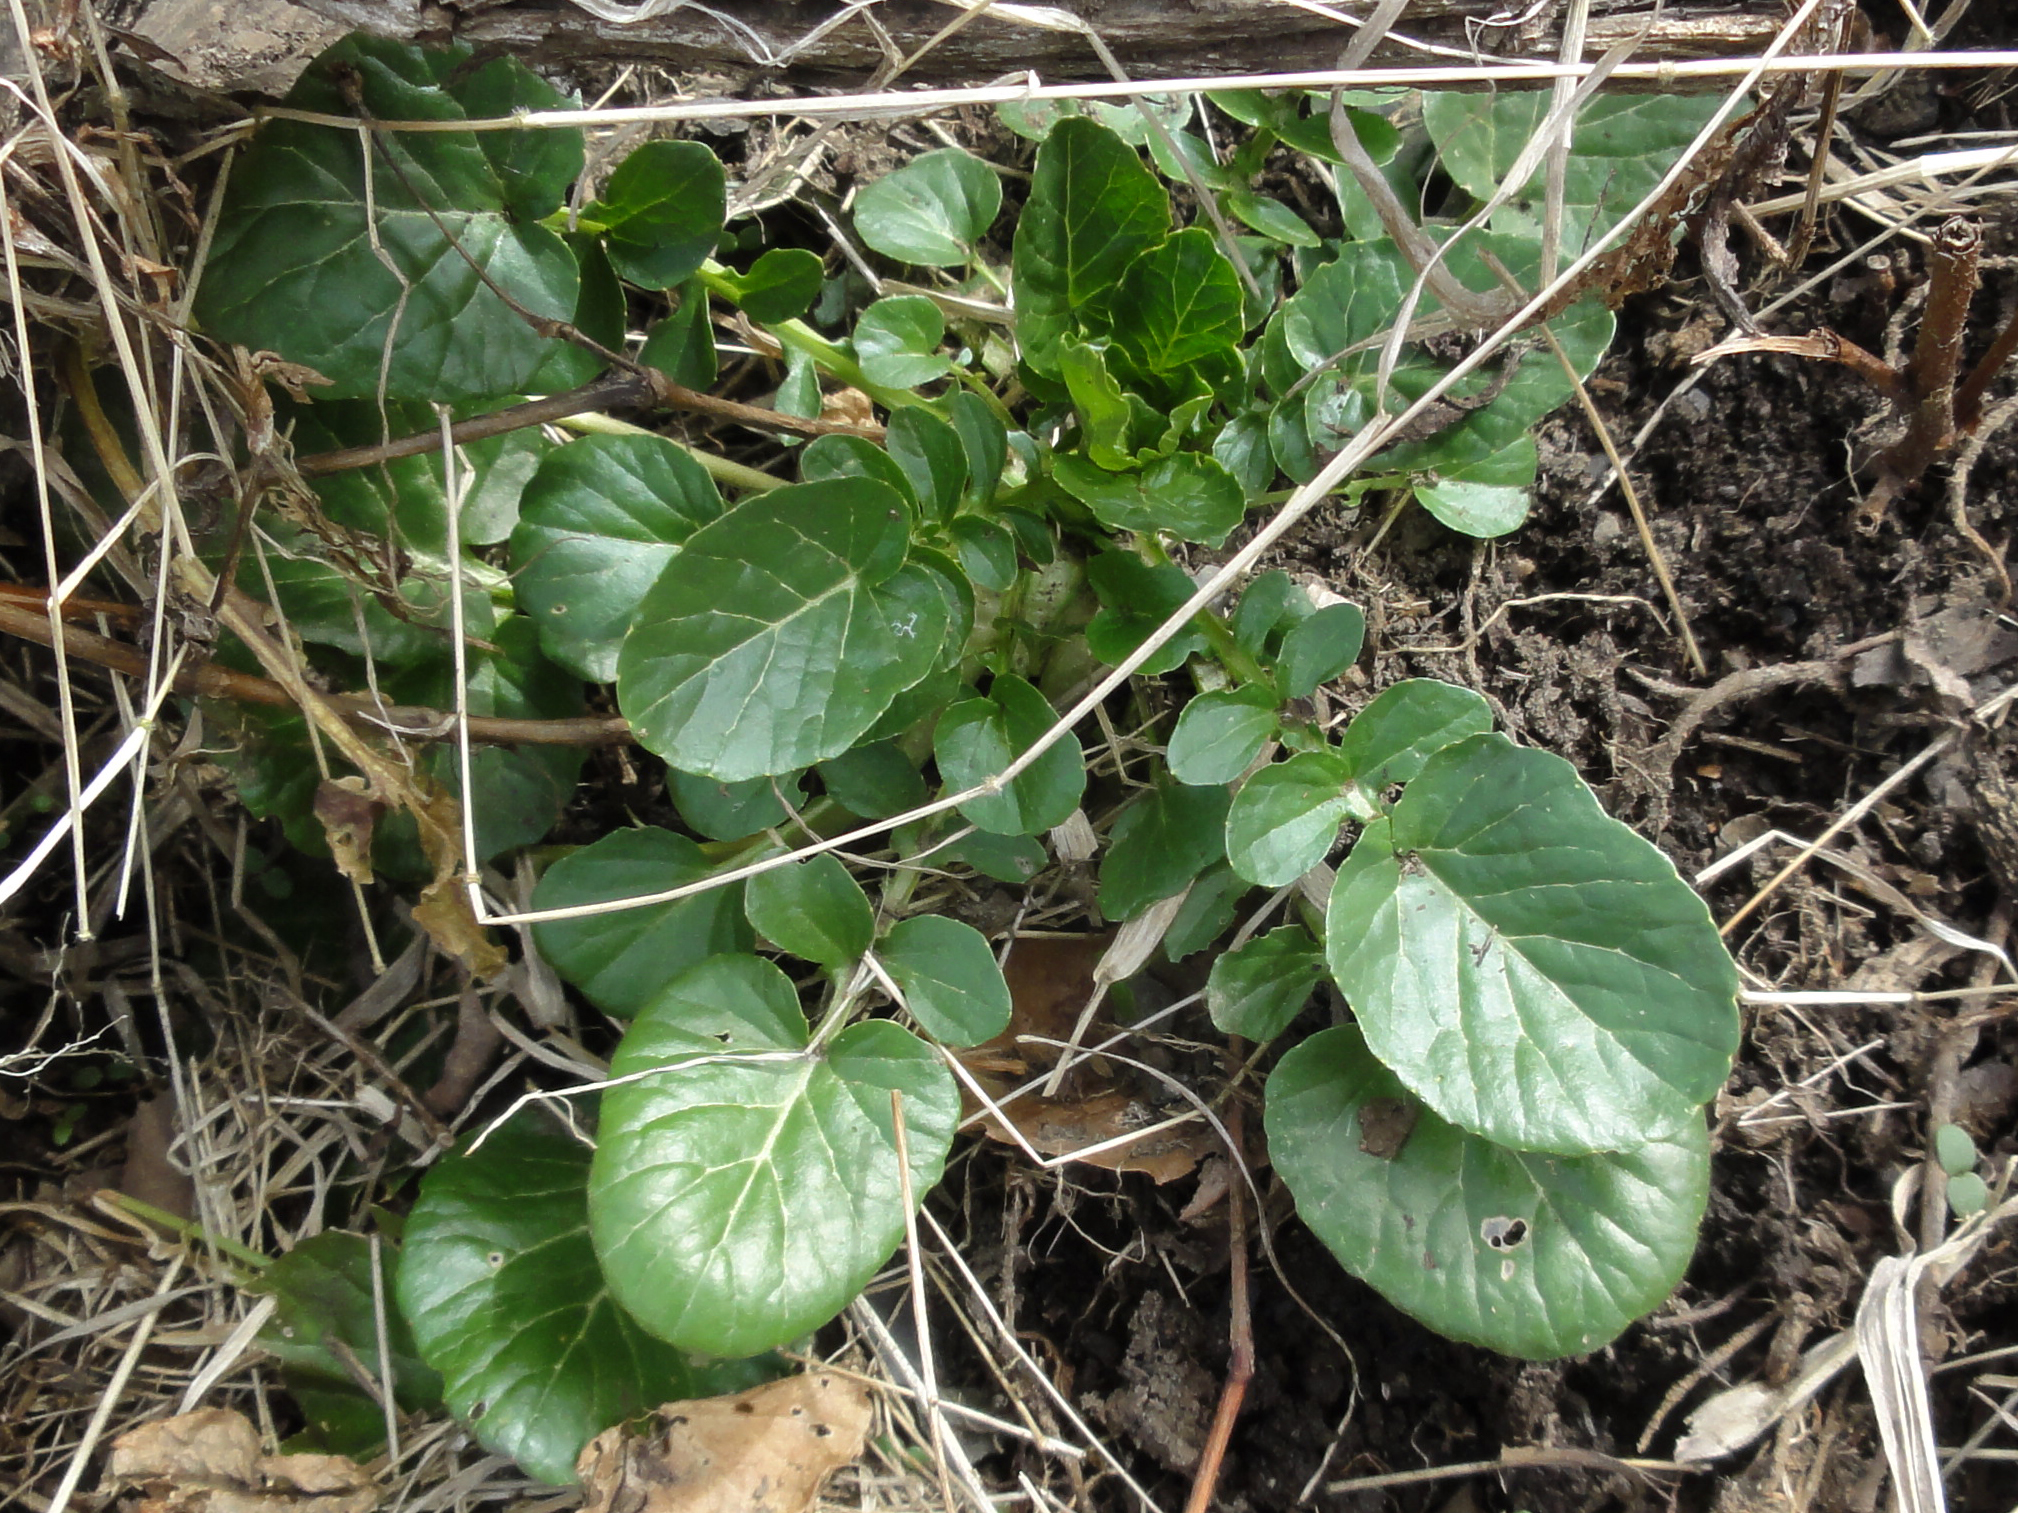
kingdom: Plantae
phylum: Tracheophyta
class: Magnoliopsida
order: Brassicales
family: Brassicaceae
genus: Barbarea
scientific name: Barbarea vulgaris
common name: Cressy-greens
